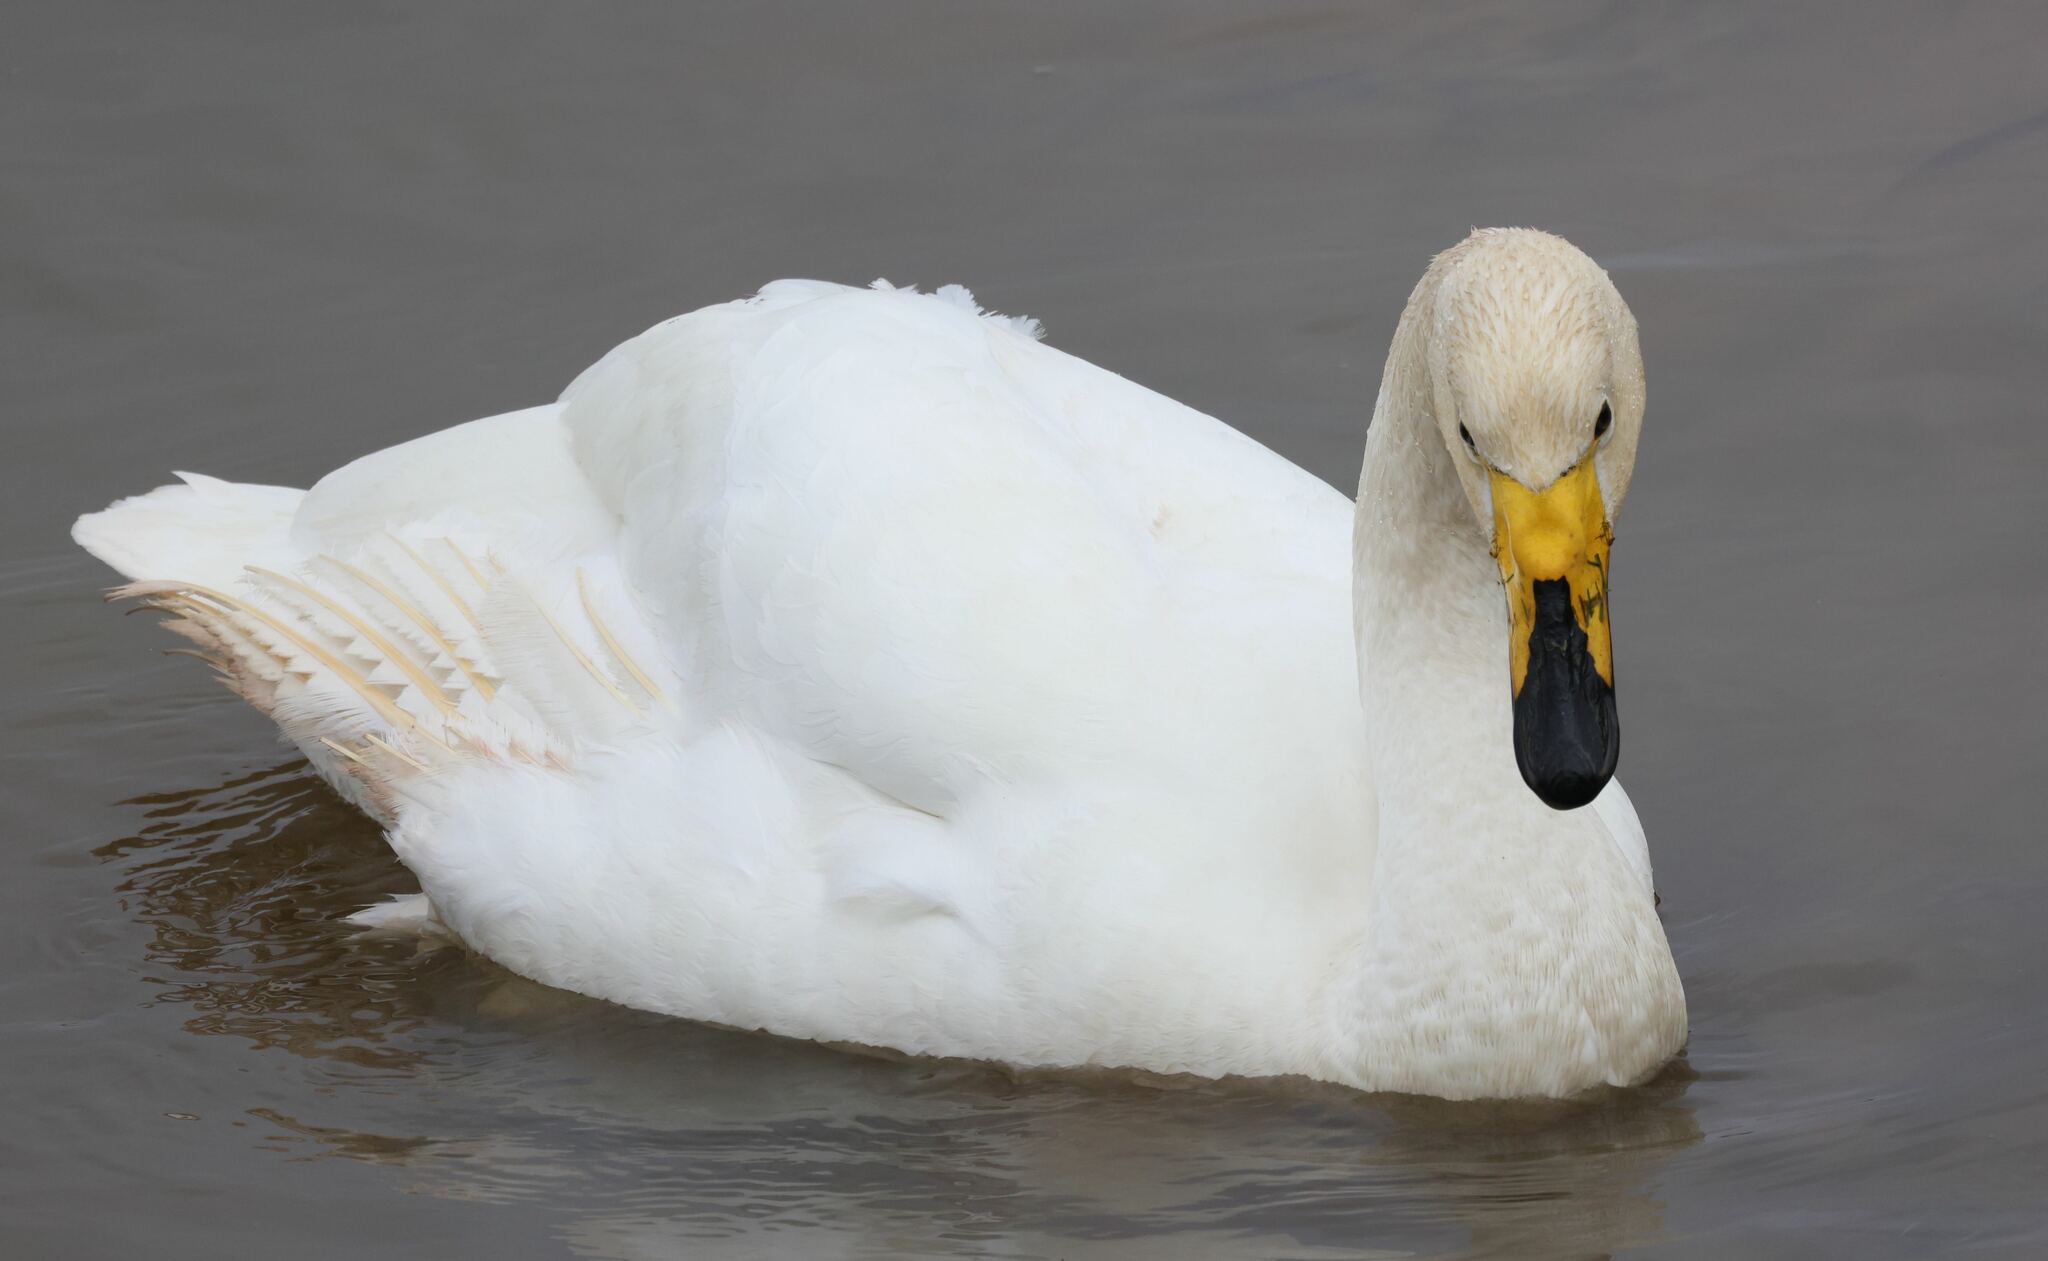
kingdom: Animalia
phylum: Chordata
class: Aves
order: Anseriformes
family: Anatidae
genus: Cygnus
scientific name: Cygnus cygnus
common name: Whooper swan
